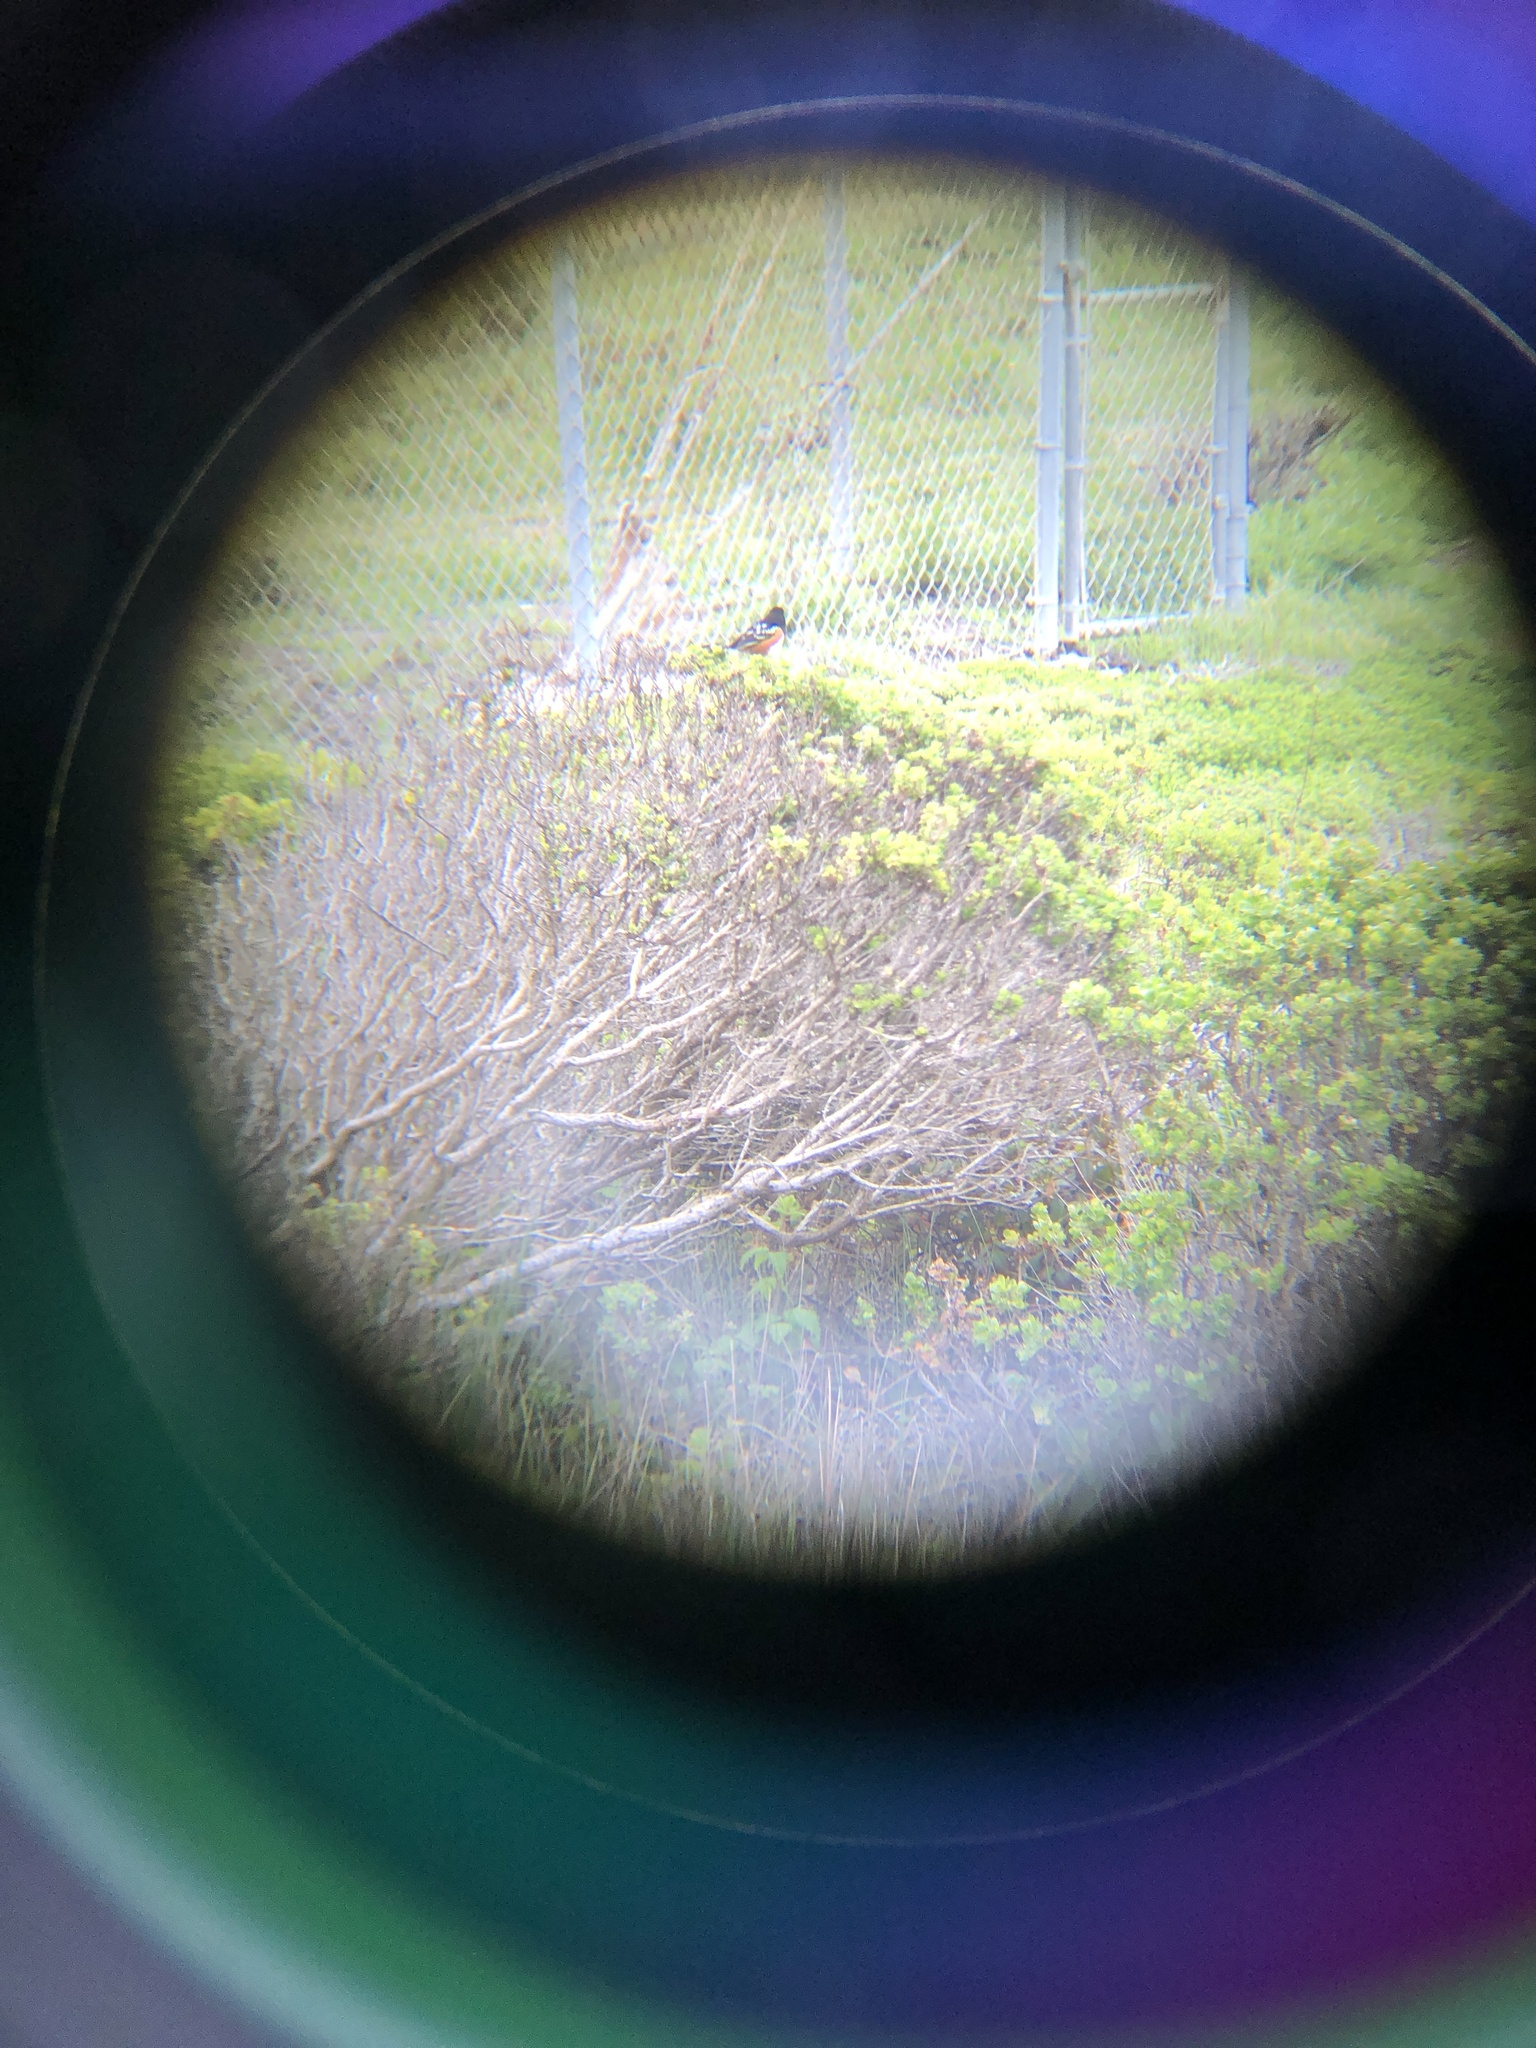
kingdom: Animalia
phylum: Chordata
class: Aves
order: Passeriformes
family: Passerellidae
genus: Pipilo
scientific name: Pipilo maculatus
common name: Spotted towhee
